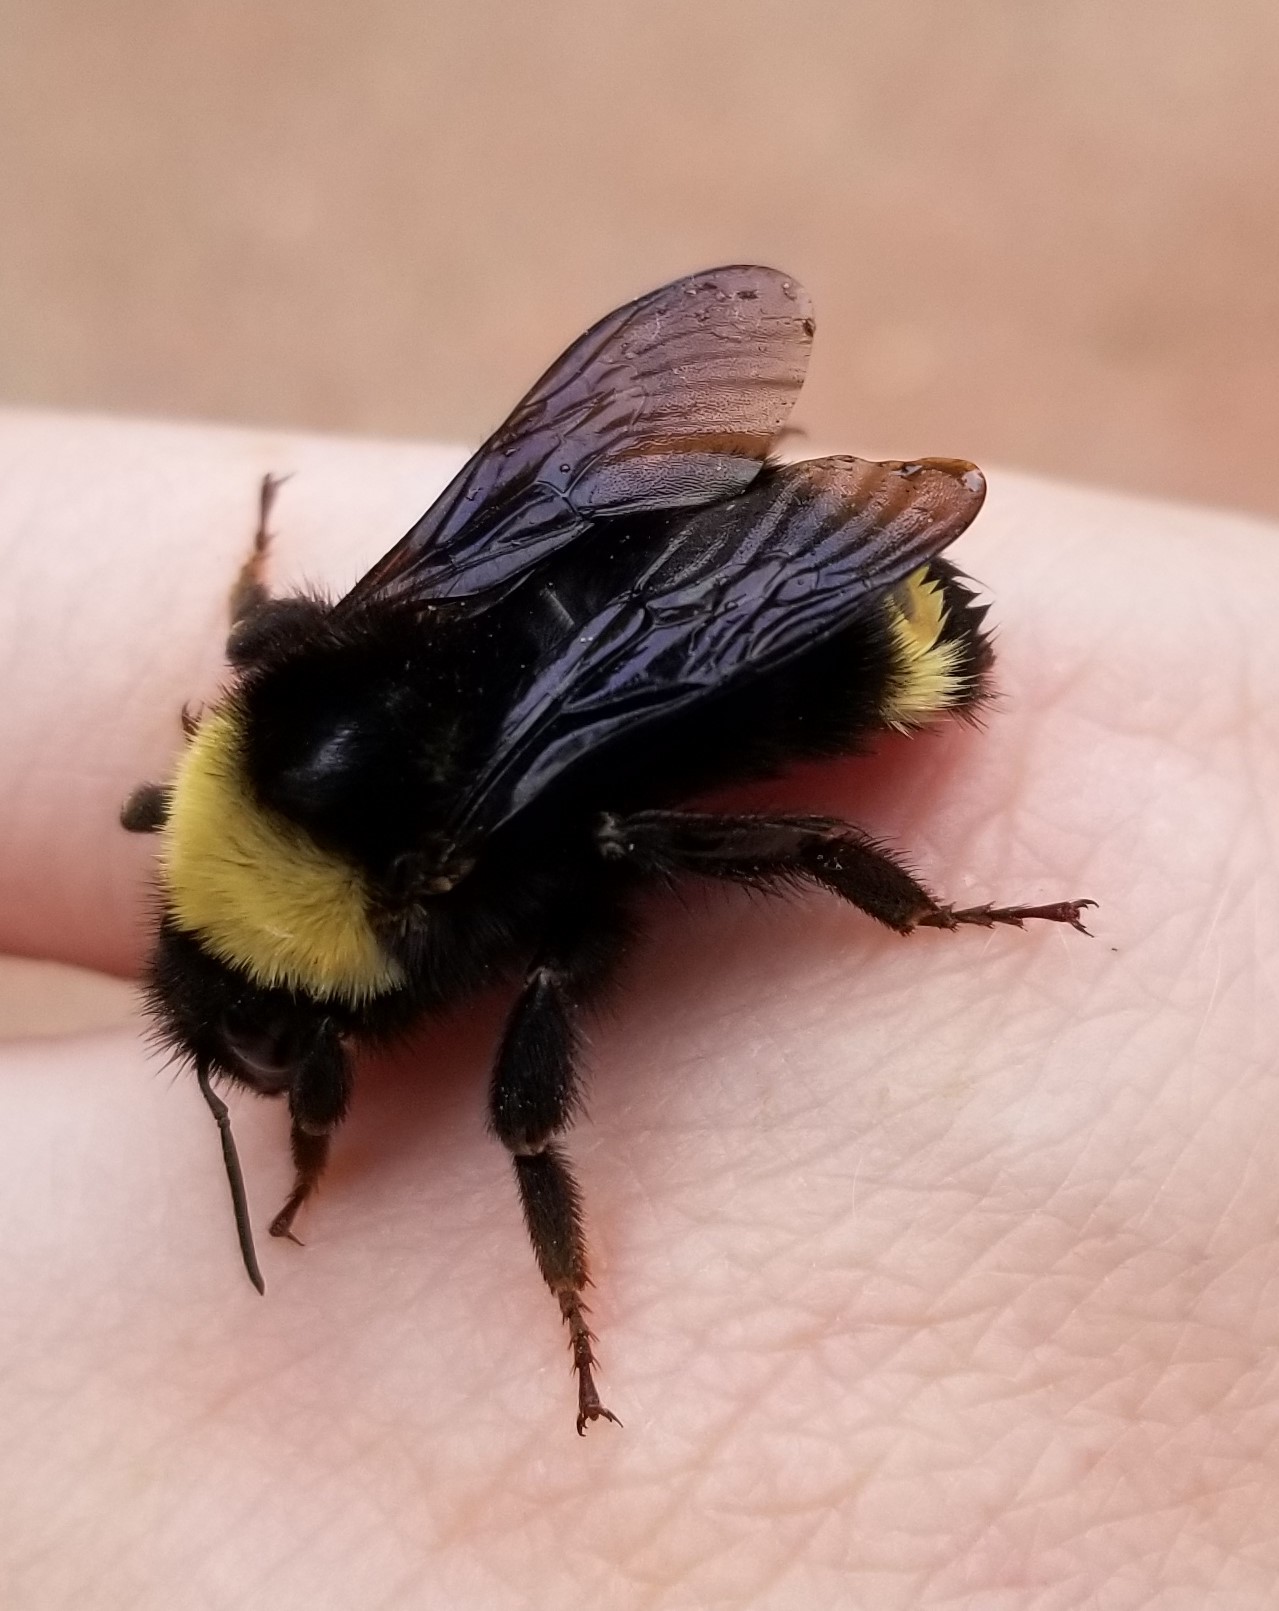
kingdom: Animalia
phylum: Arthropoda
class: Insecta
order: Hymenoptera
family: Apidae
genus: Bombus
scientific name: Bombus californicus
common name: California bumble bee
